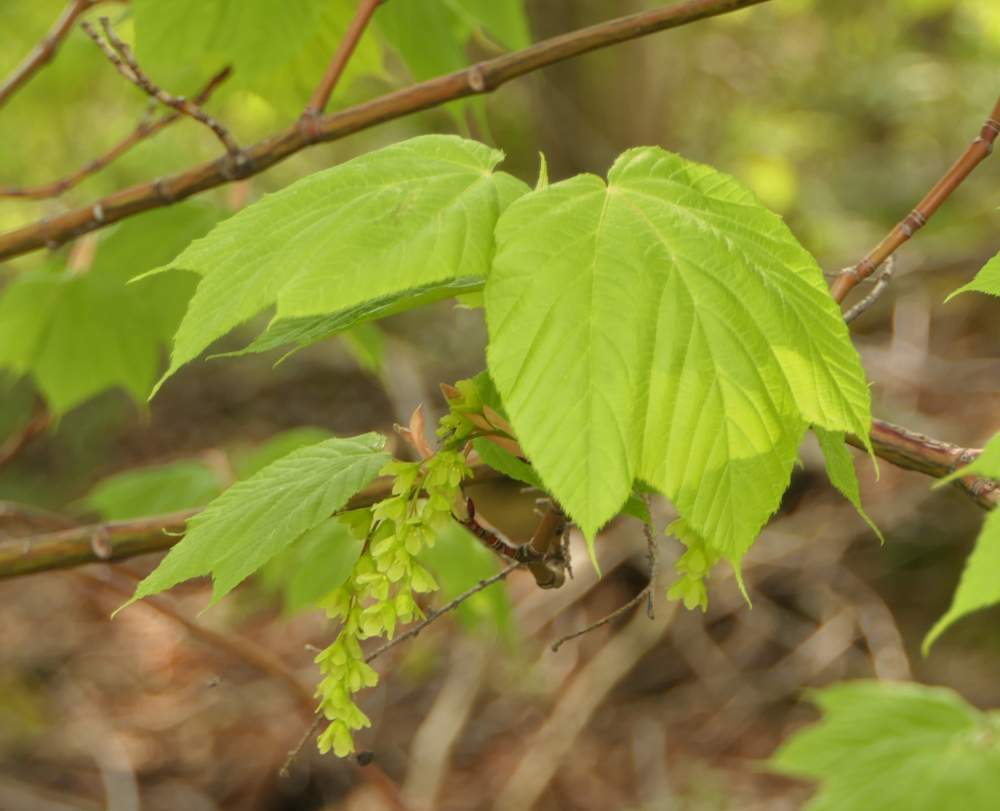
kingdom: Plantae
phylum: Tracheophyta
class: Magnoliopsida
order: Sapindales
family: Sapindaceae
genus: Acer
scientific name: Acer pensylvanicum
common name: Moosewood
